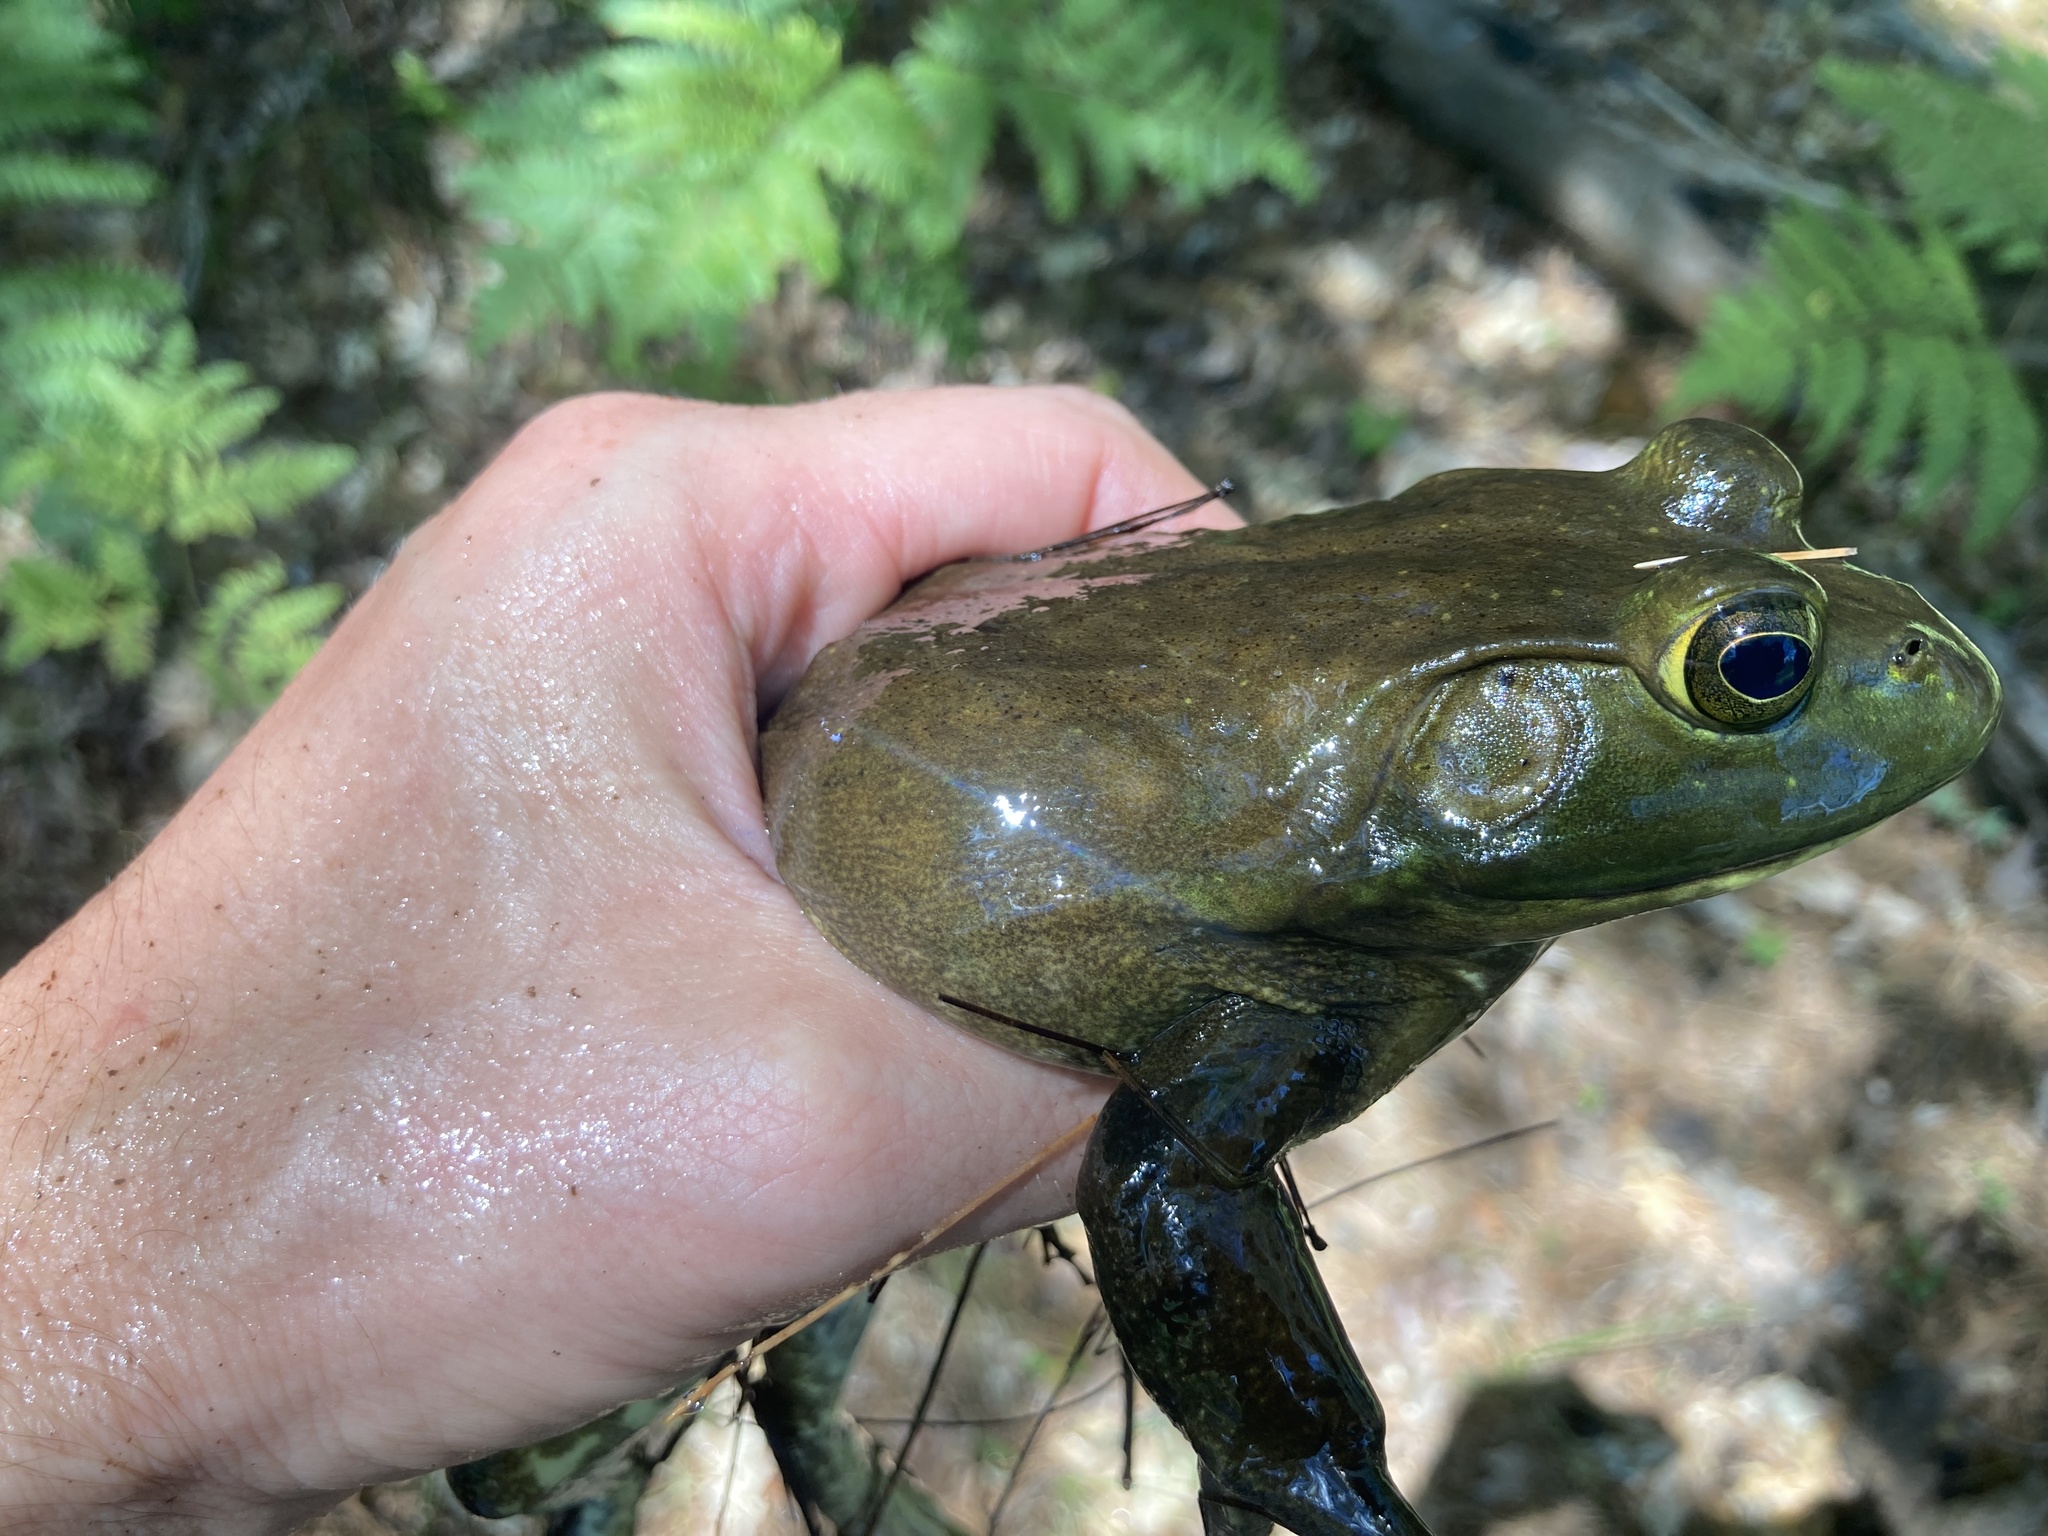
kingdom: Animalia
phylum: Chordata
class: Amphibia
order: Anura
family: Ranidae
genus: Lithobates
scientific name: Lithobates catesbeianus
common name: American bullfrog
